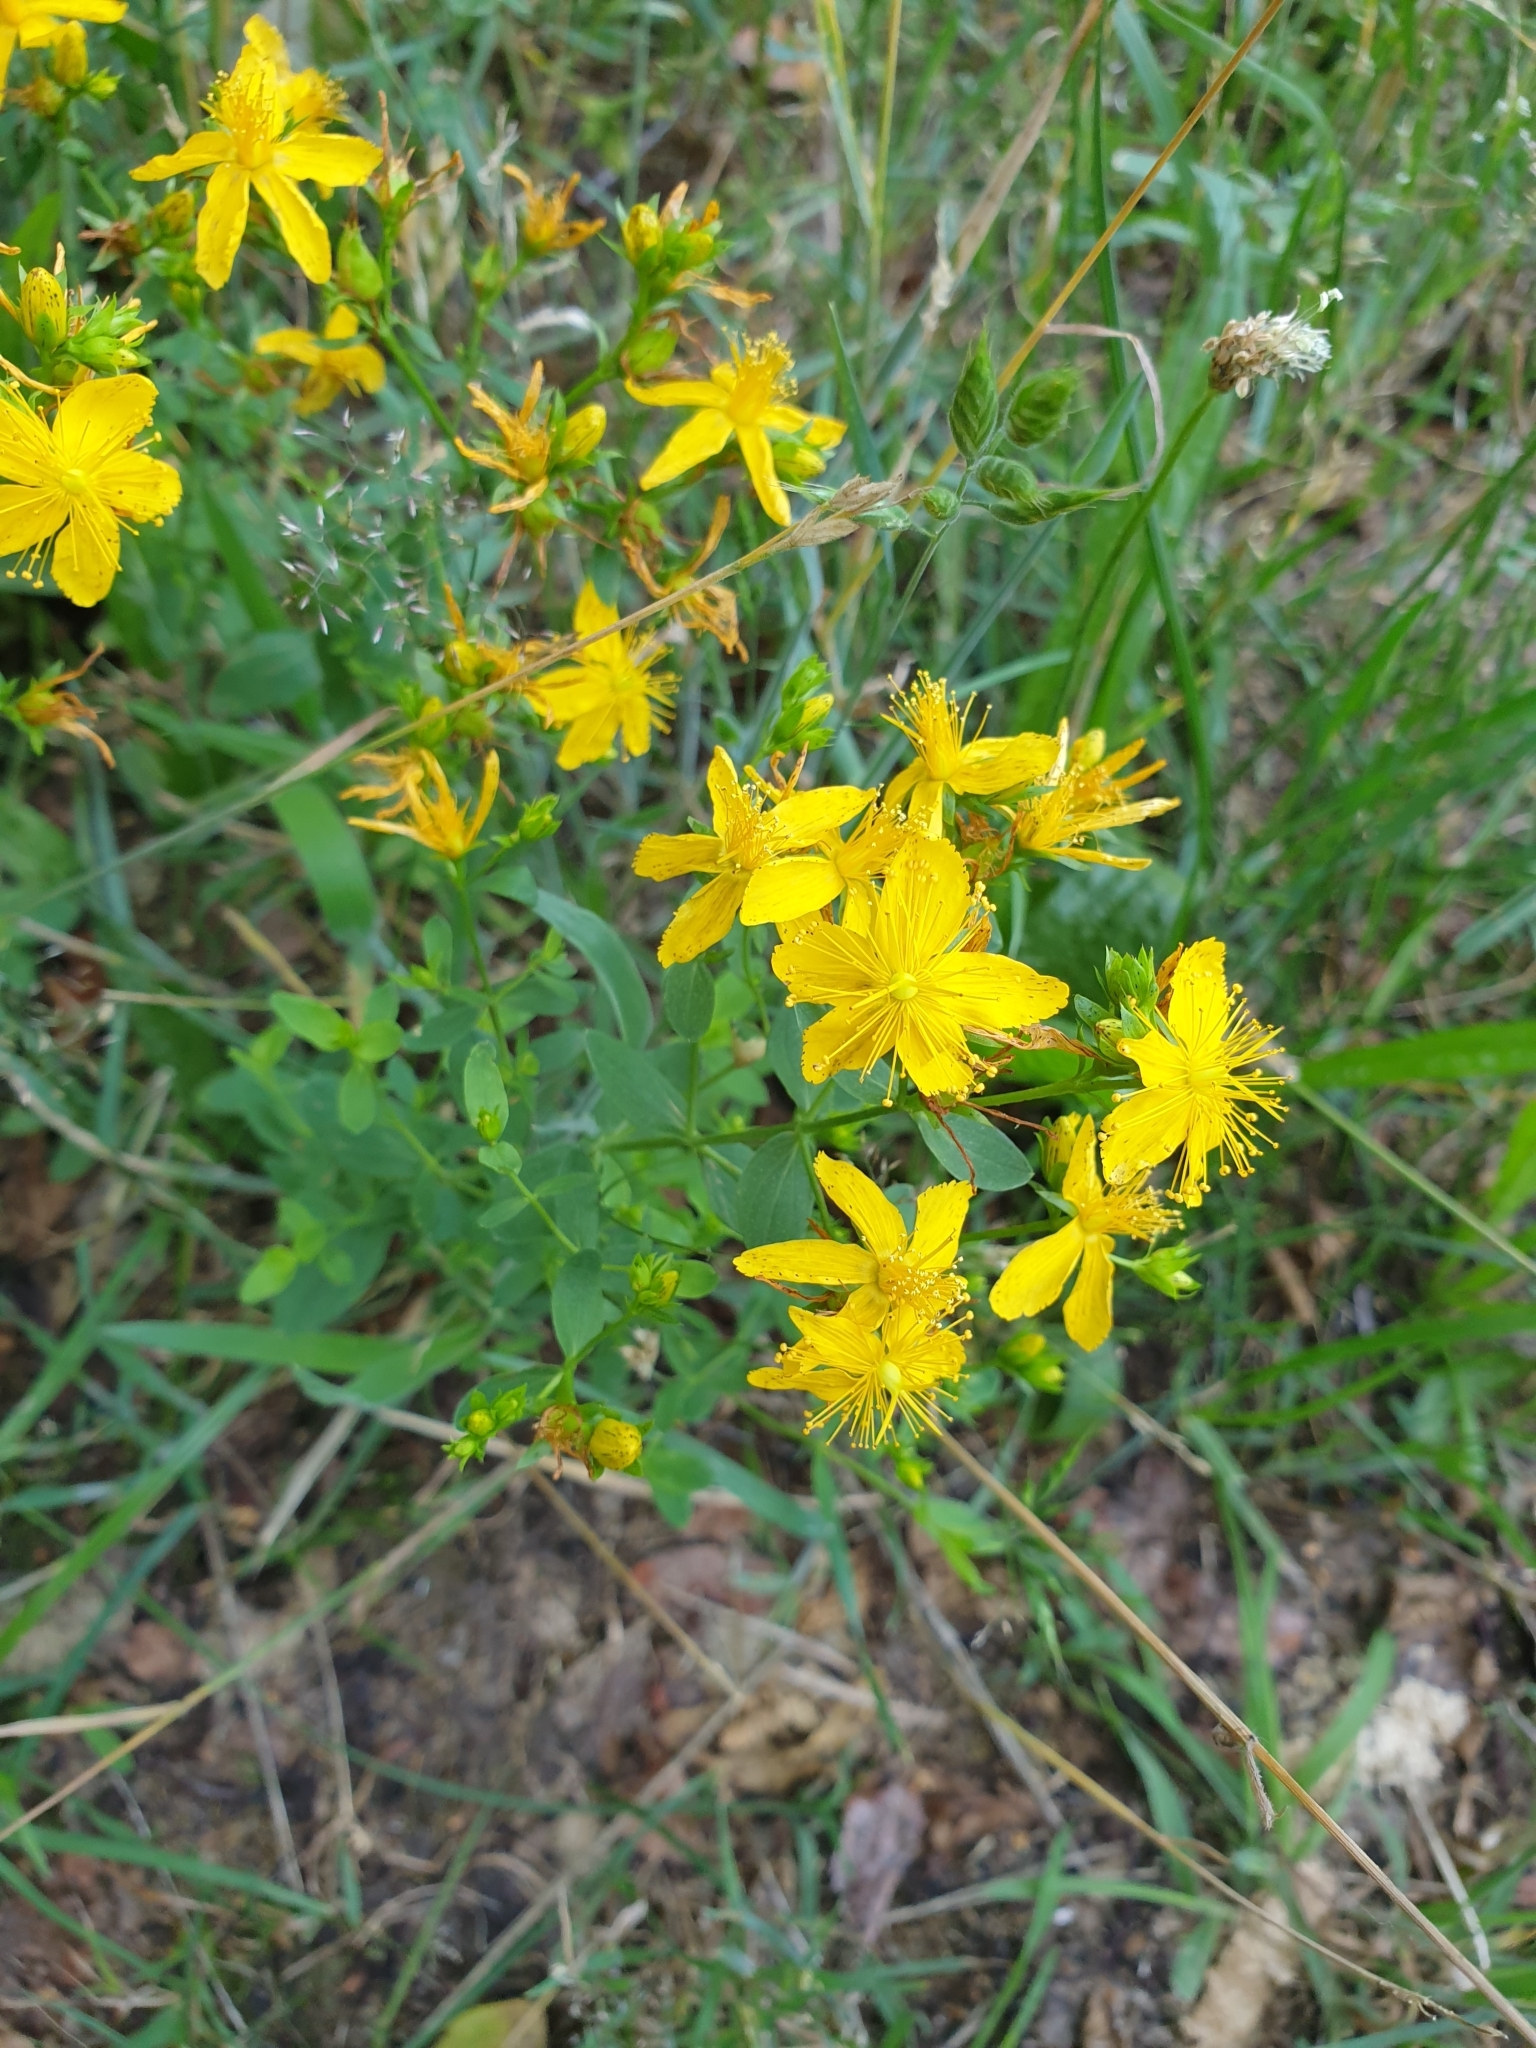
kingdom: Plantae
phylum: Tracheophyta
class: Magnoliopsida
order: Malpighiales
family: Hypericaceae
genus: Hypericum
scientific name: Hypericum perforatum
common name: Common st. johnswort
